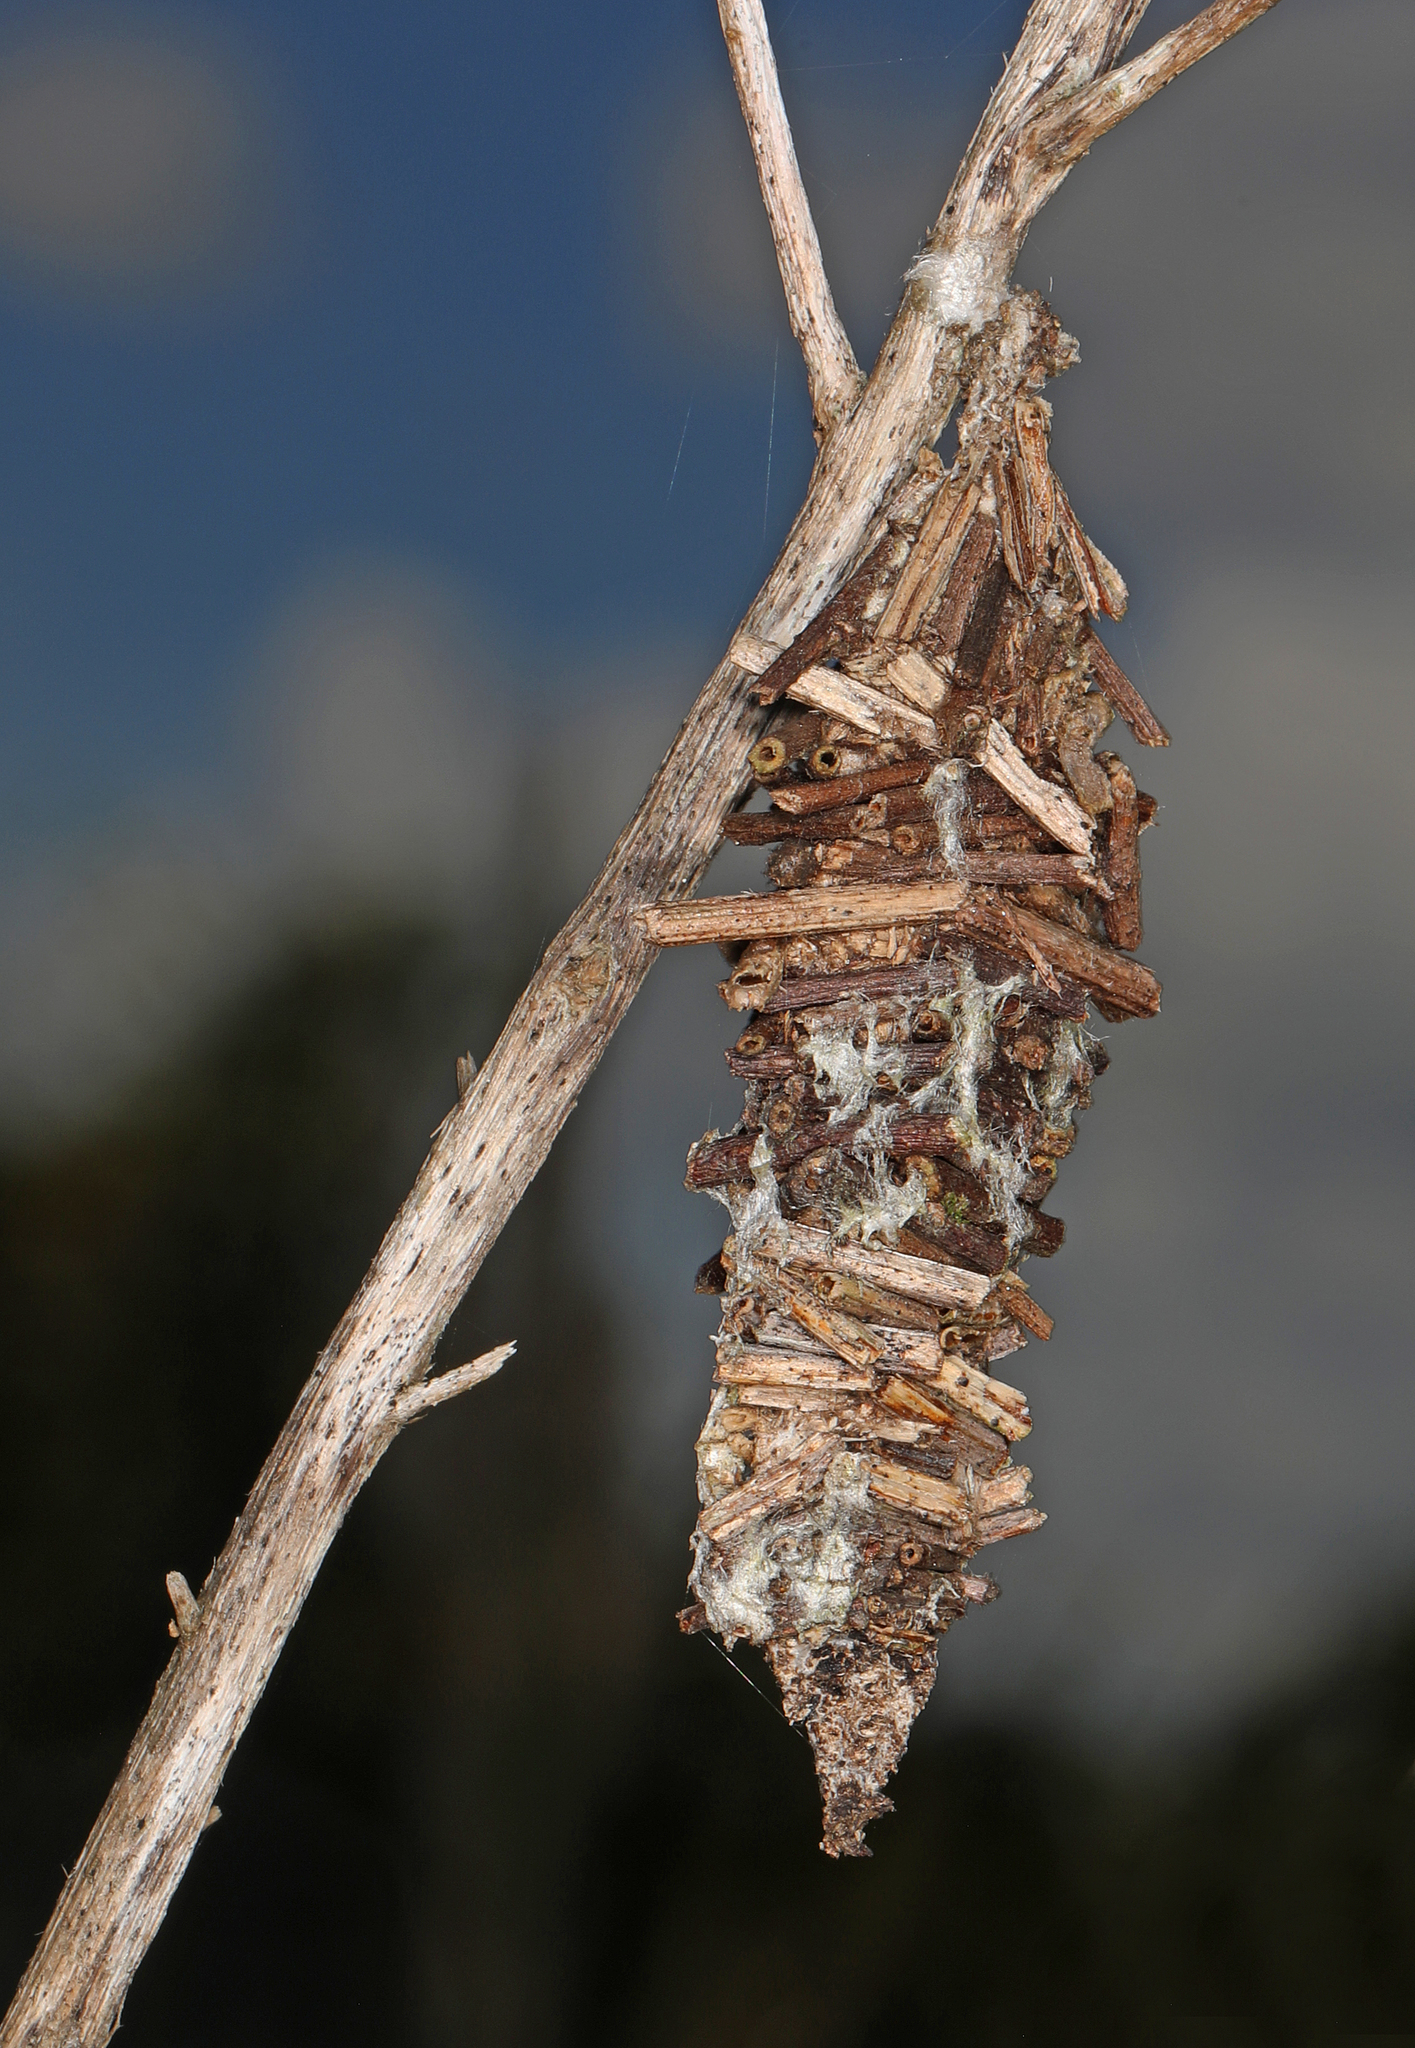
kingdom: Animalia
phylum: Arthropoda
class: Insecta
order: Lepidoptera
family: Psychidae
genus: Oiketicus
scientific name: Oiketicus
